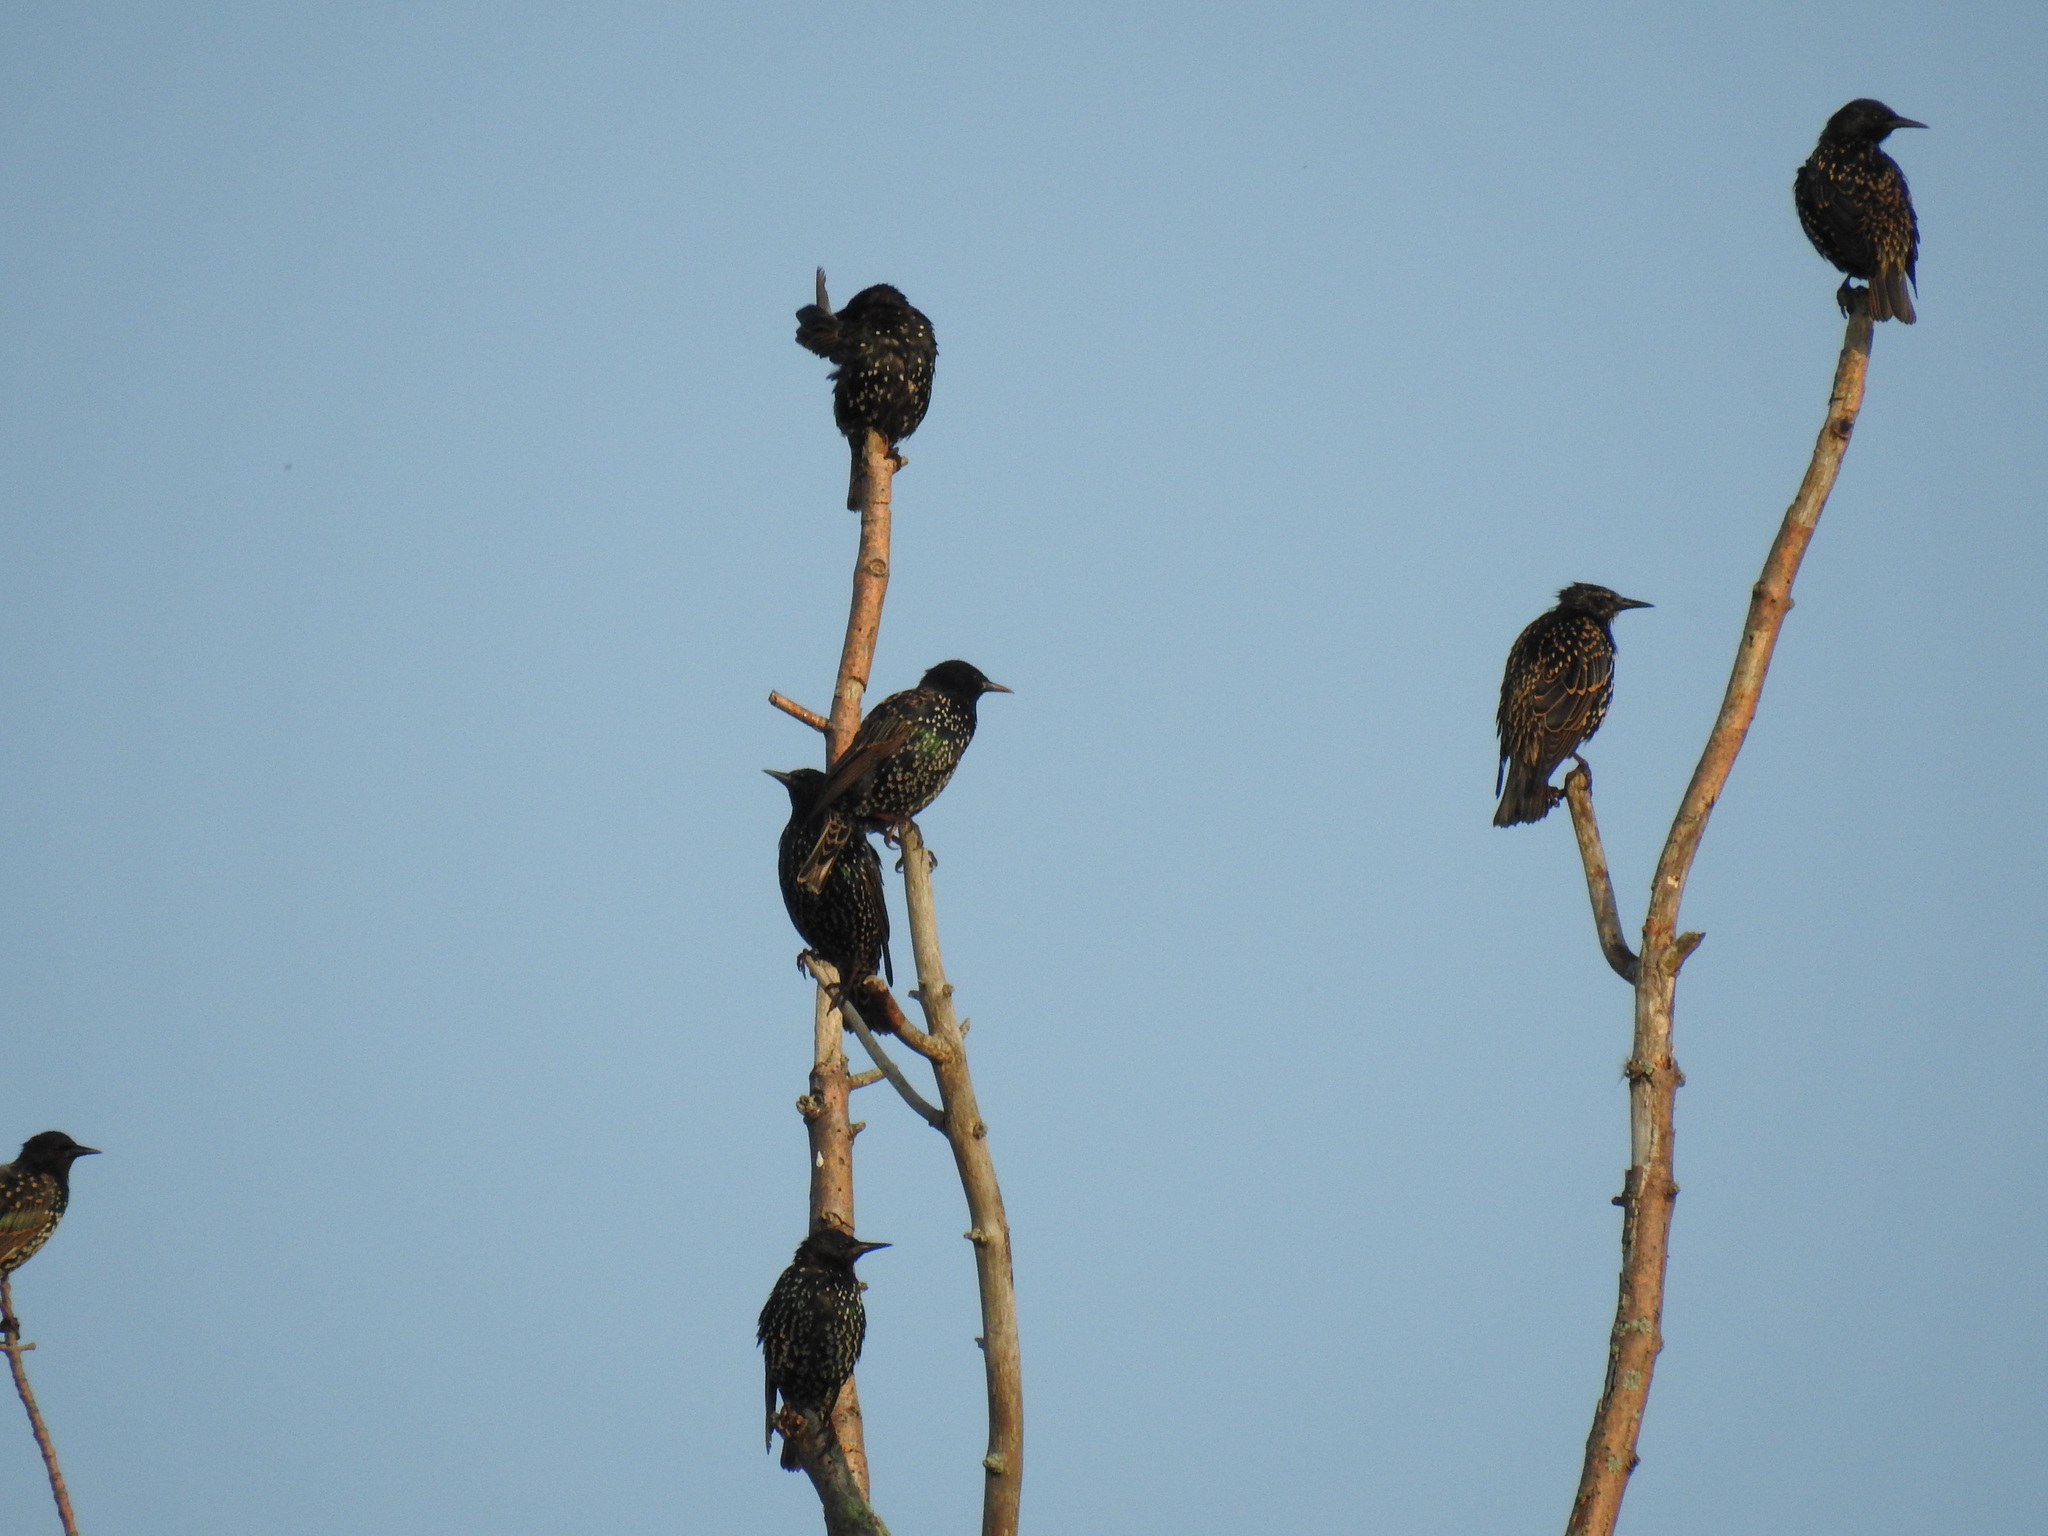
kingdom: Animalia
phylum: Chordata
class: Aves
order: Passeriformes
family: Sturnidae
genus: Sturnus
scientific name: Sturnus vulgaris
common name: Common starling
